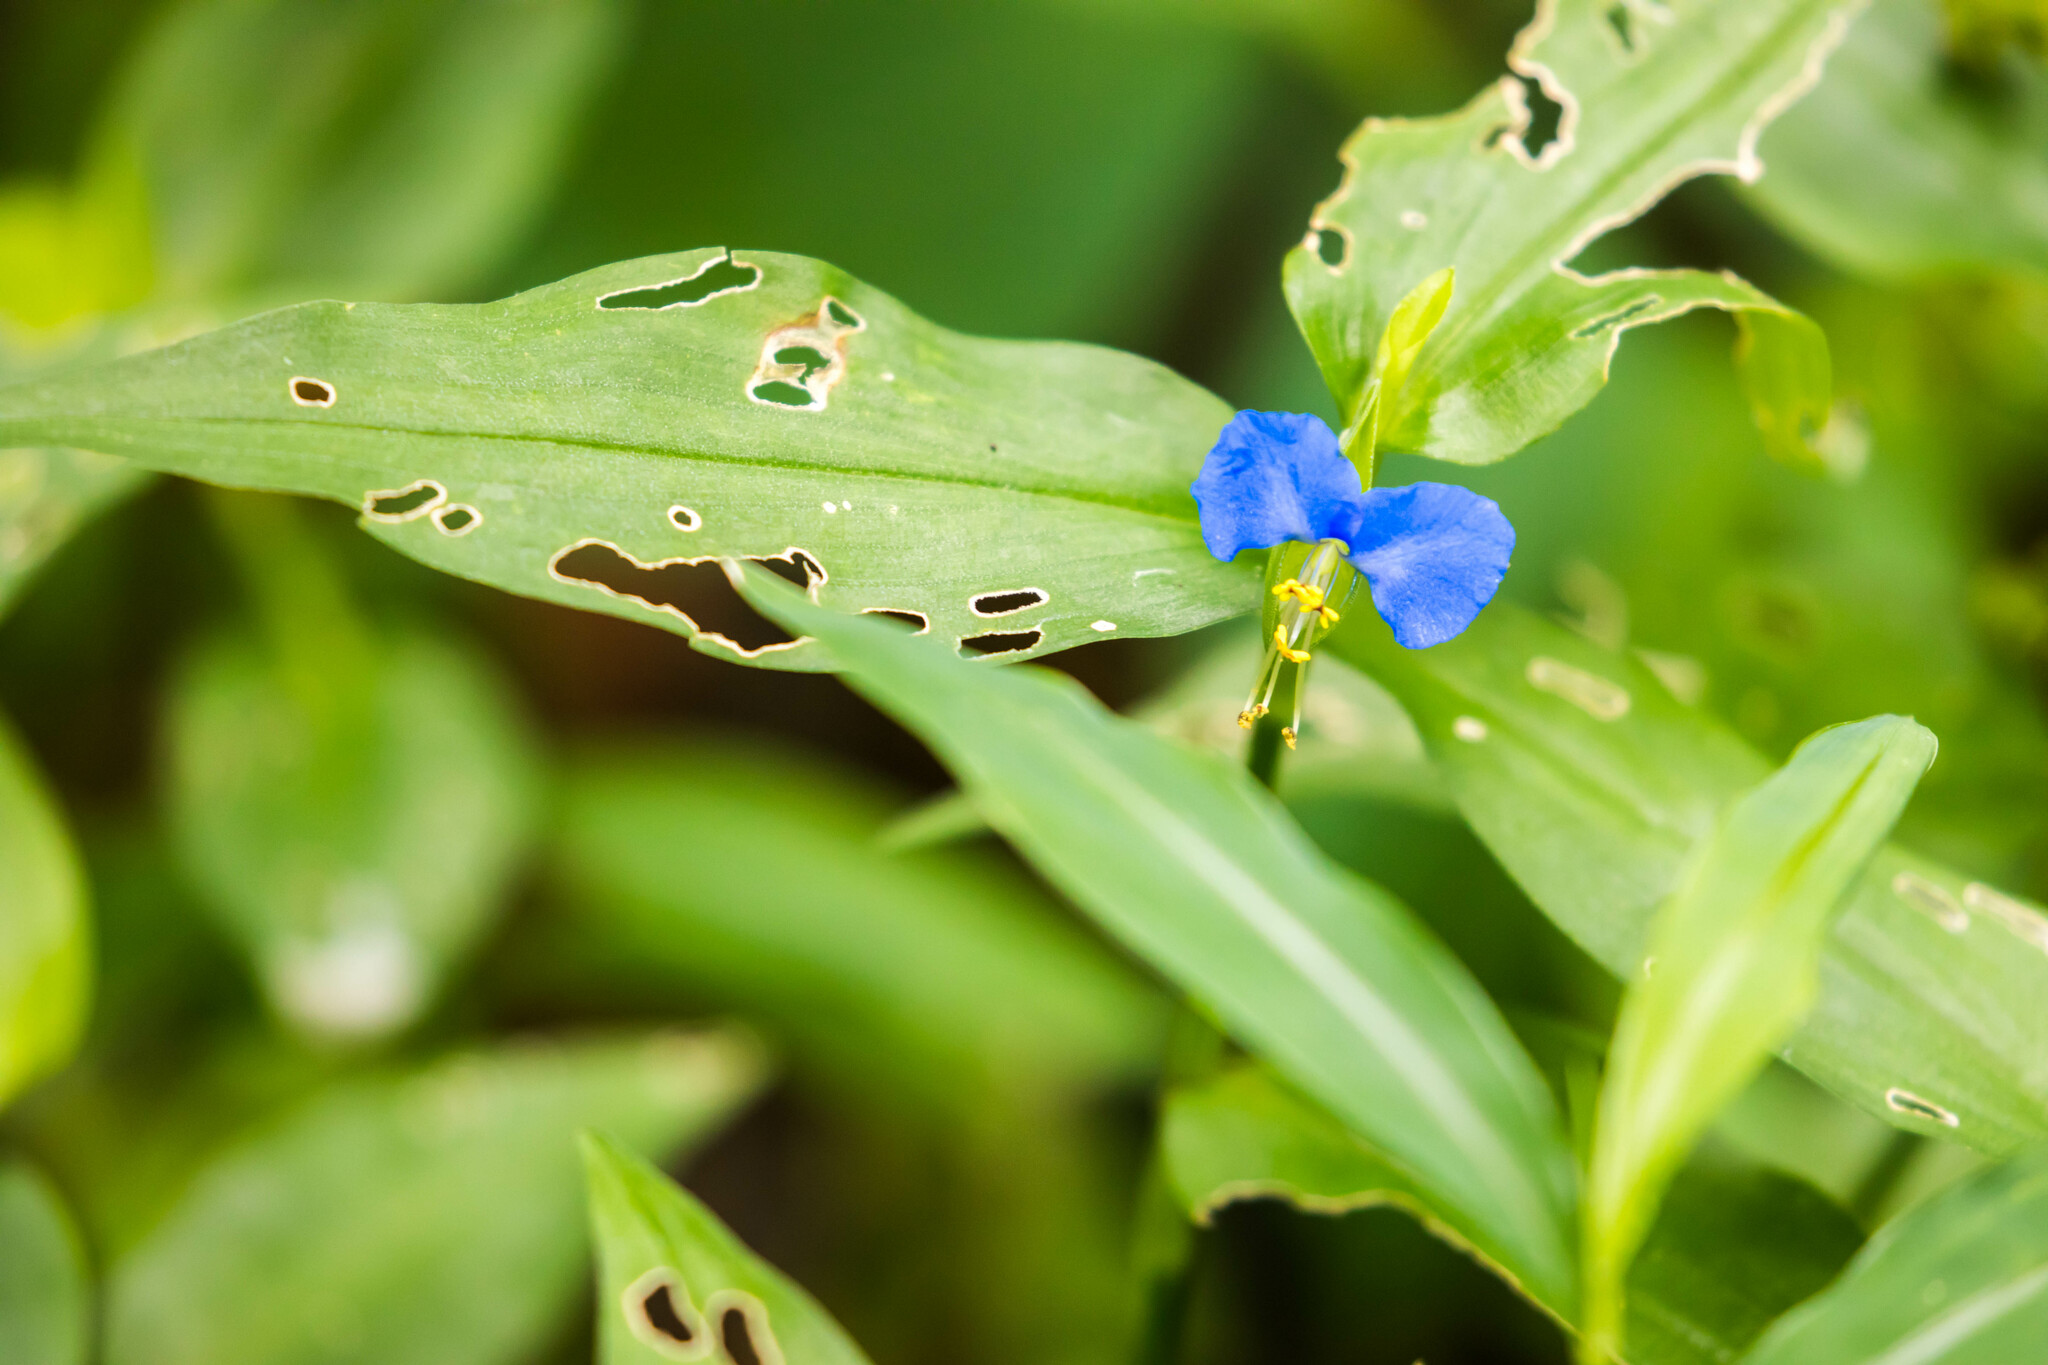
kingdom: Plantae
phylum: Tracheophyta
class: Liliopsida
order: Commelinales
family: Commelinaceae
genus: Commelina
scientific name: Commelina communis
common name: Asiatic dayflower
